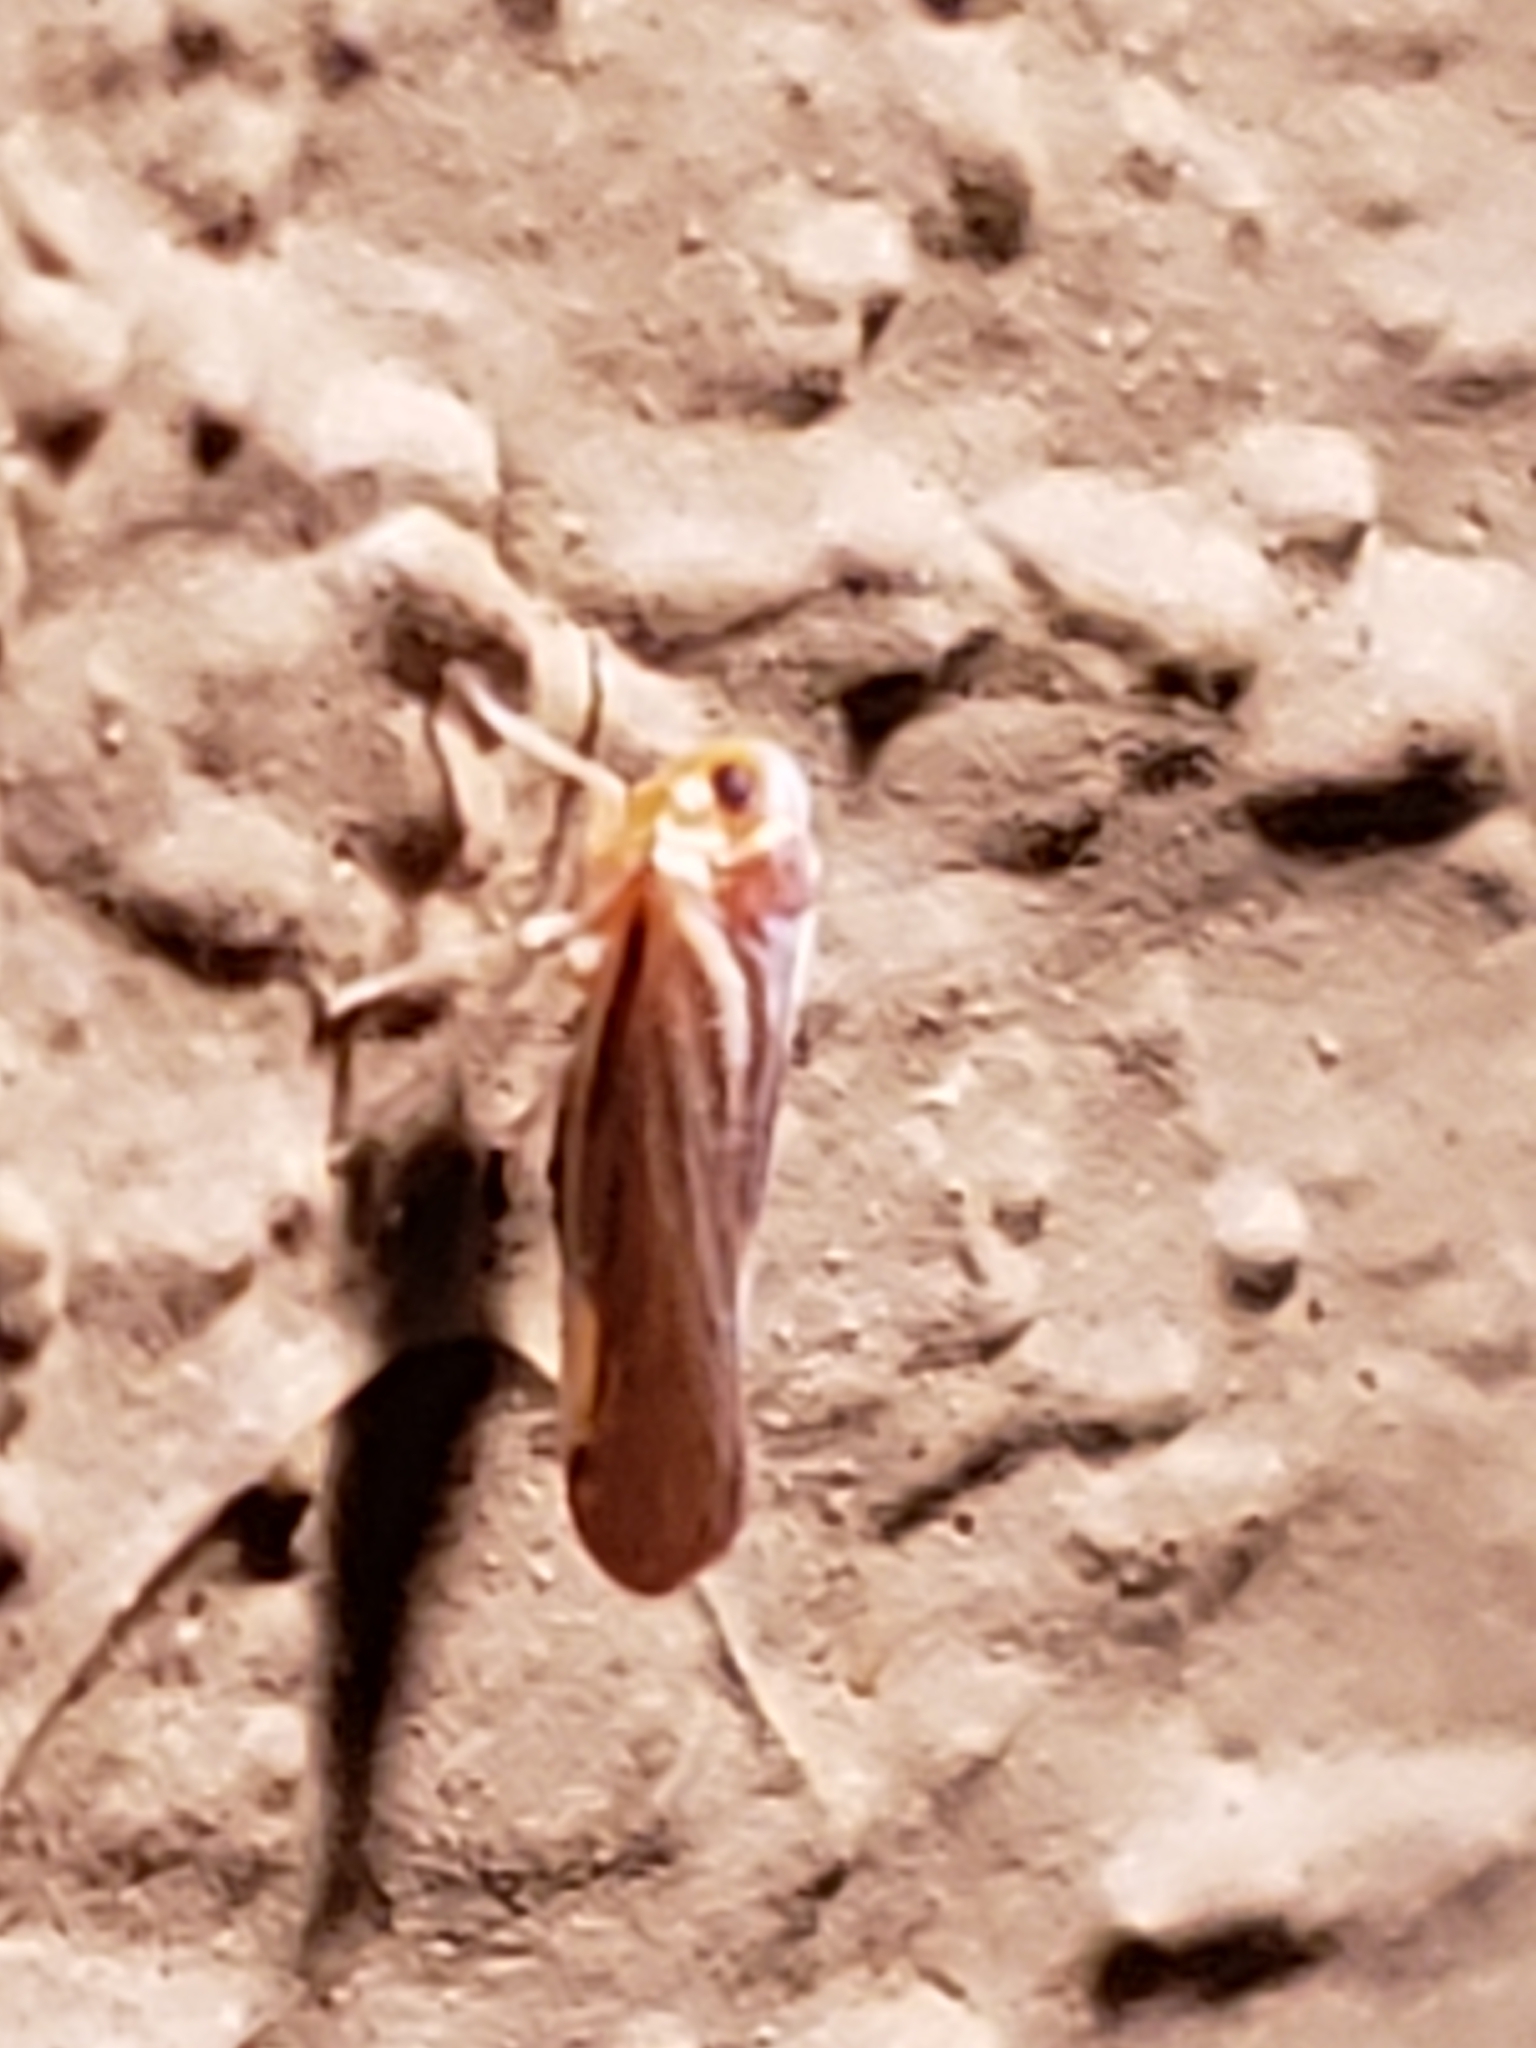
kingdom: Animalia
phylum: Arthropoda
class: Insecta
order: Hemiptera
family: Derbidae
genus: Omolicna
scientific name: Omolicna uhleri
